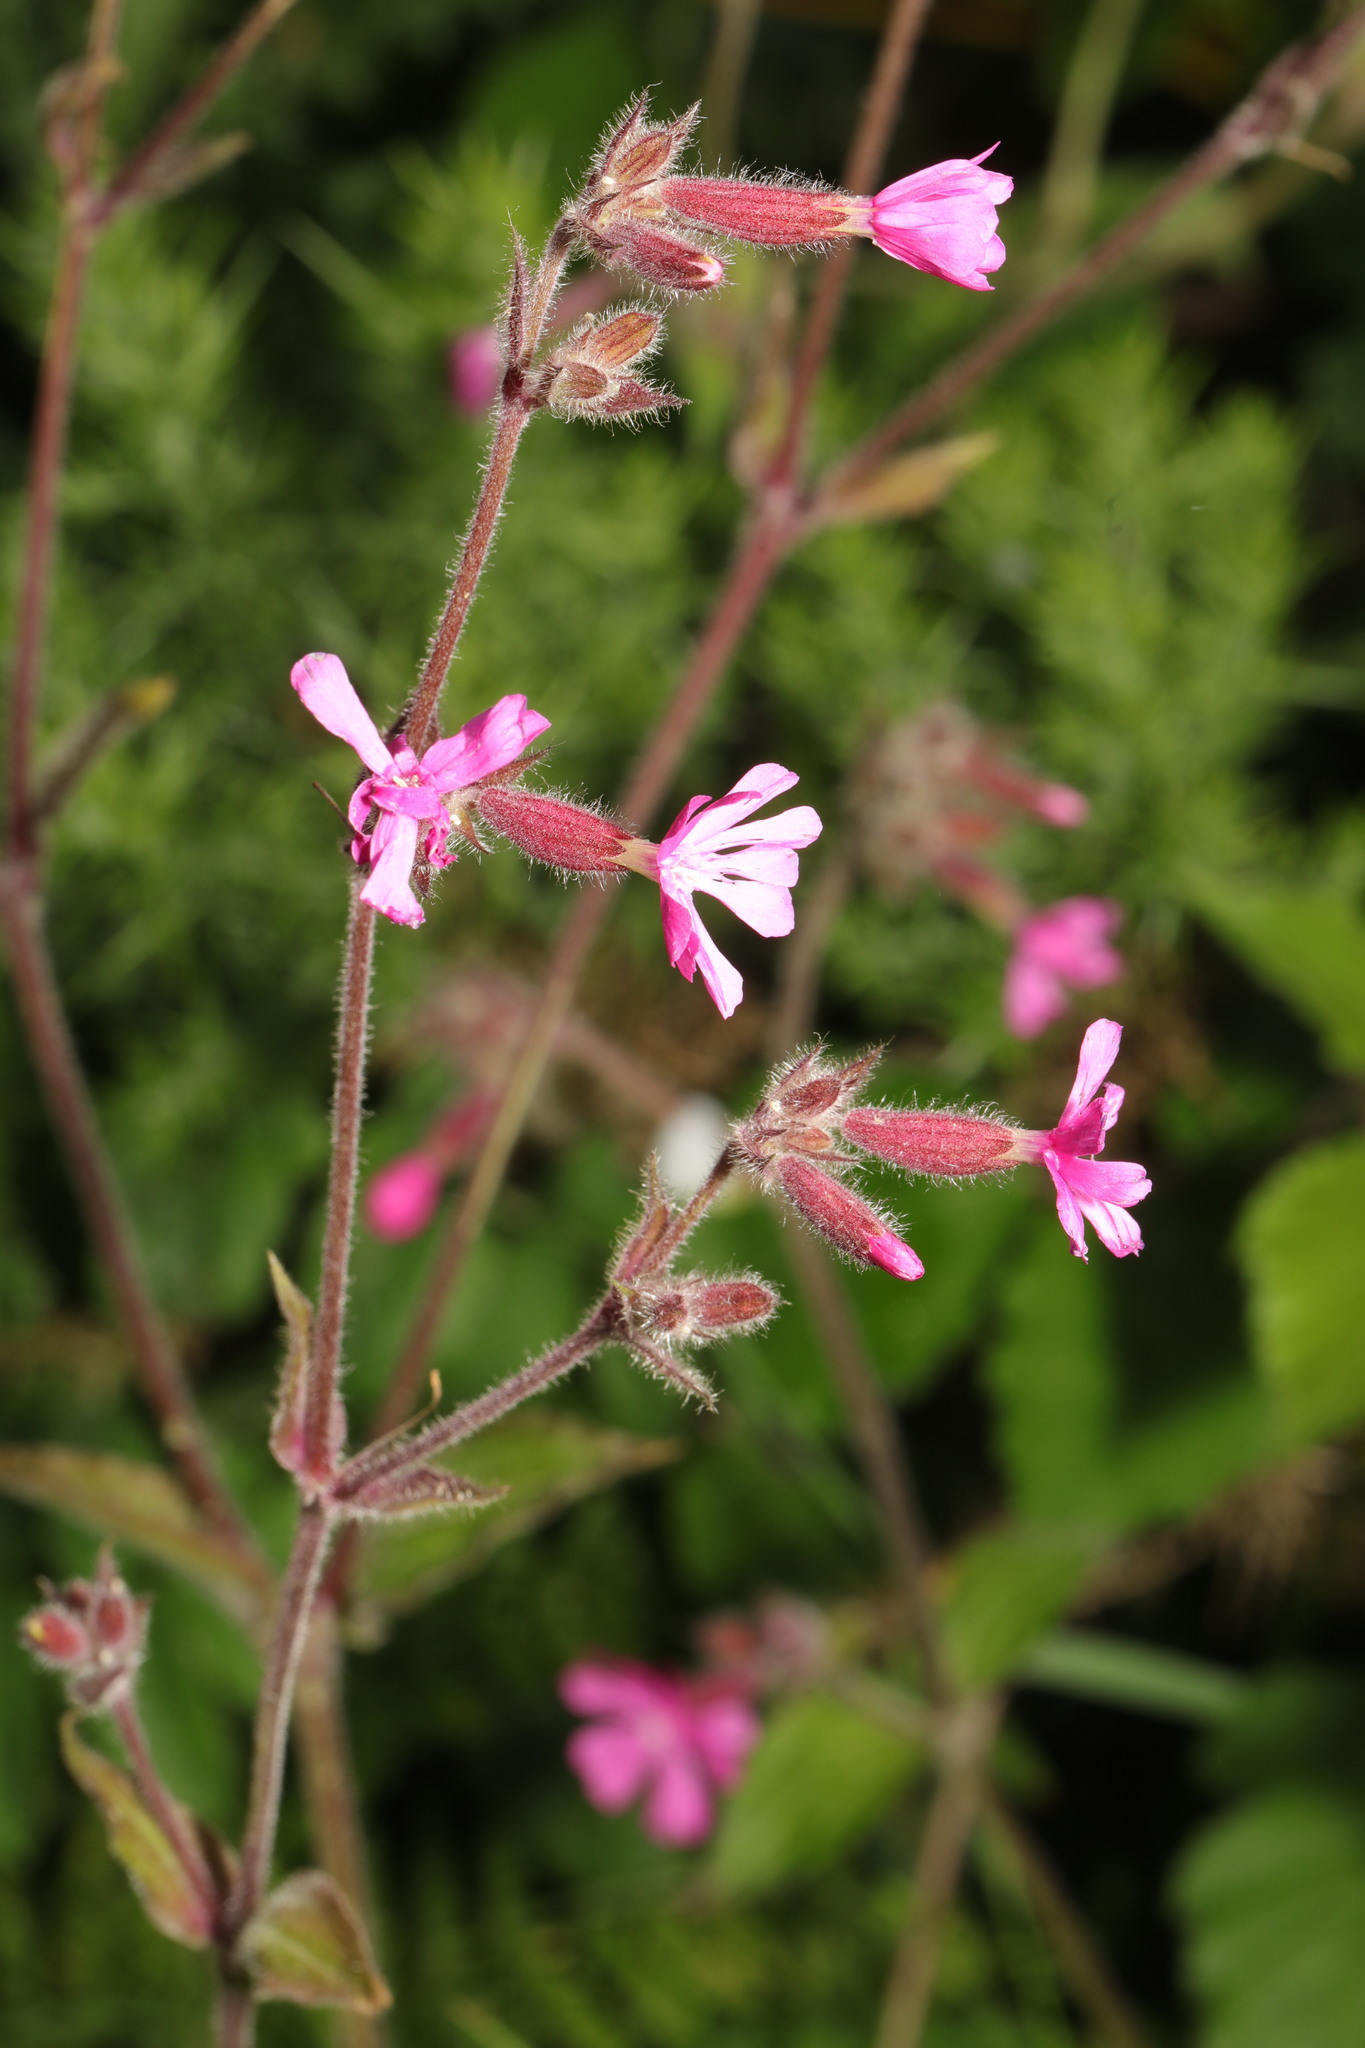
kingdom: Plantae
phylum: Tracheophyta
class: Magnoliopsida
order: Caryophyllales
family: Caryophyllaceae
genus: Silene
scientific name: Silene dioica
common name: Red campion
